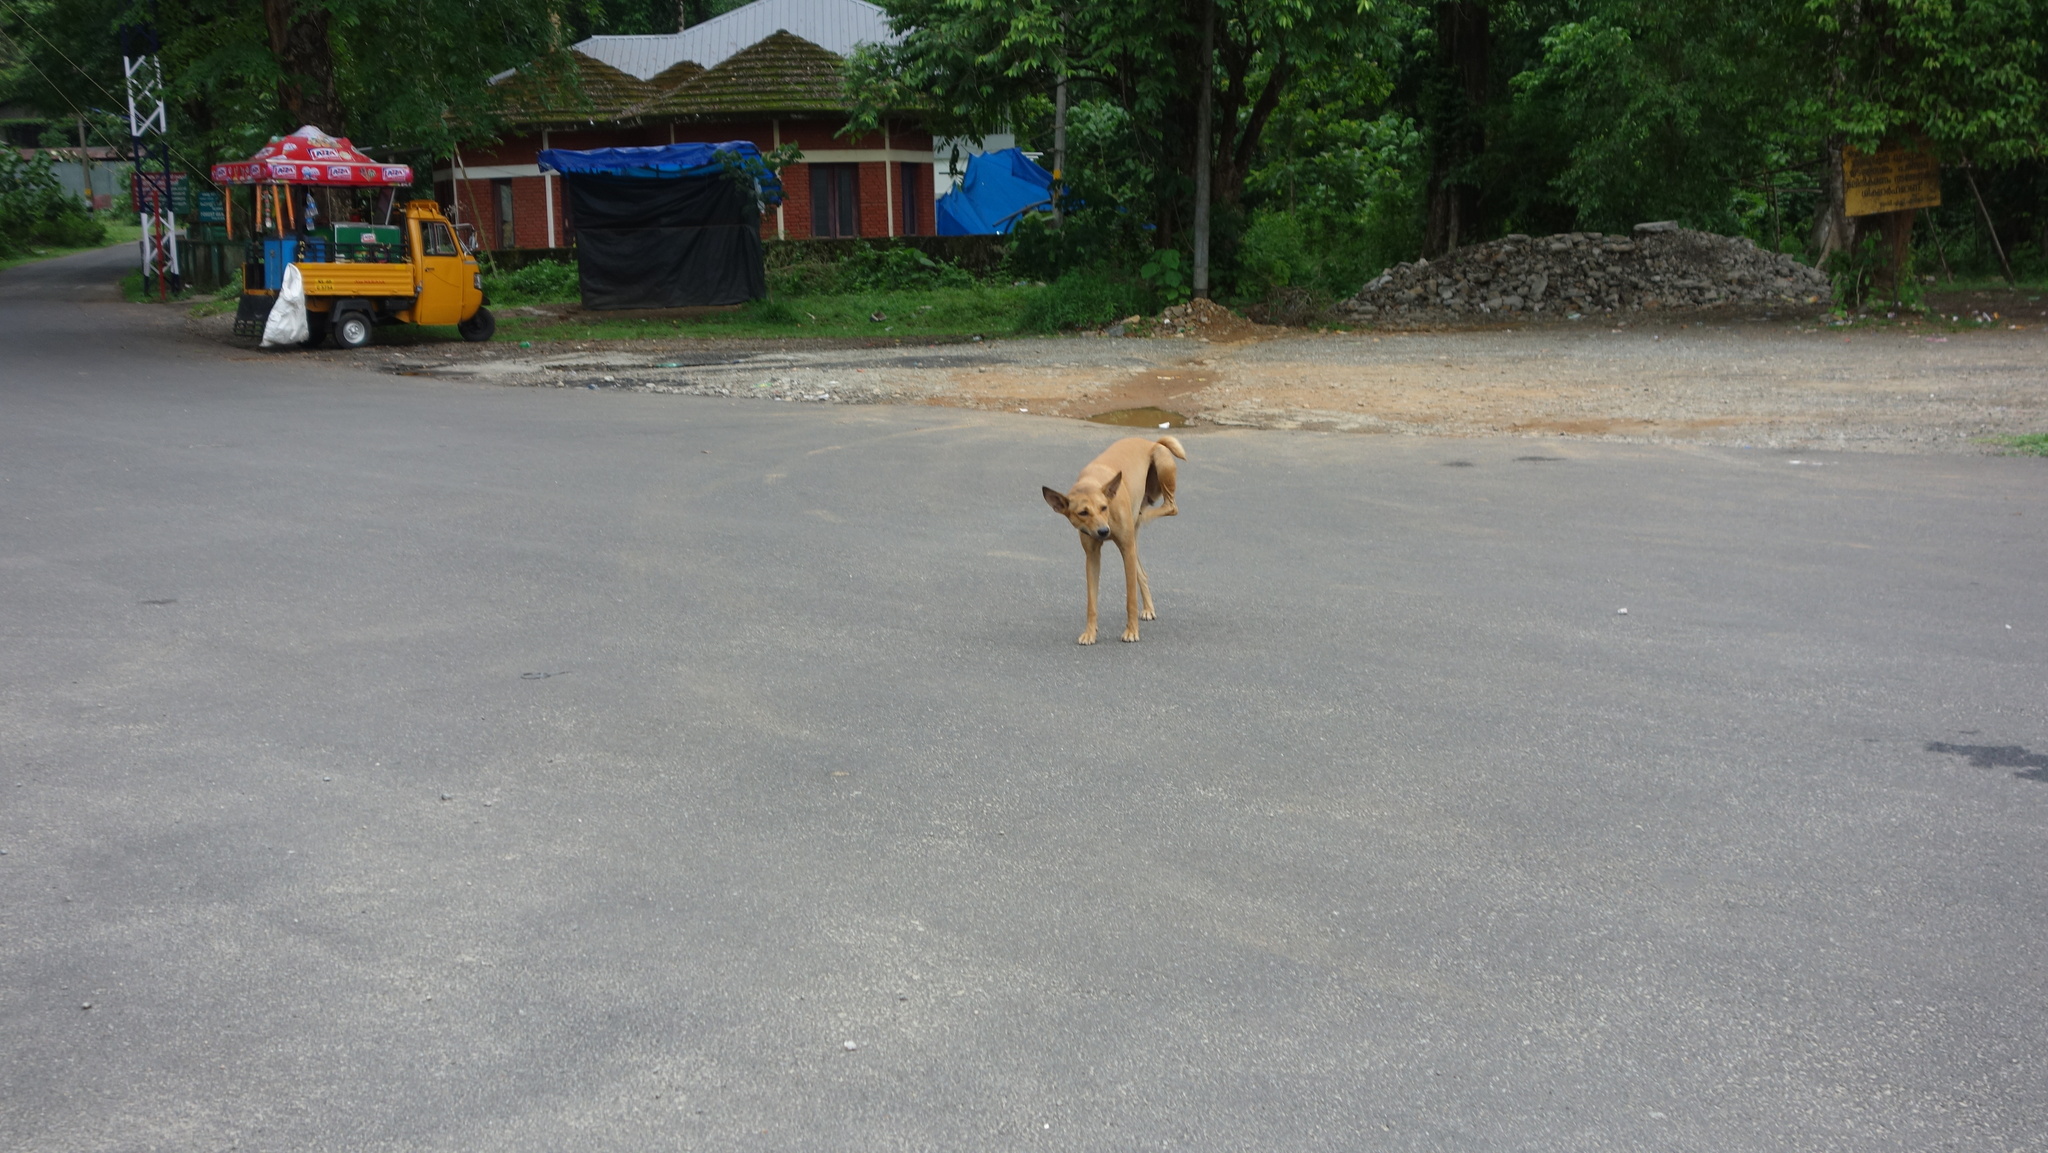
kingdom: Animalia
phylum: Chordata
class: Mammalia
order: Carnivora
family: Canidae
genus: Canis
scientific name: Canis lupus
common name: Gray wolf
